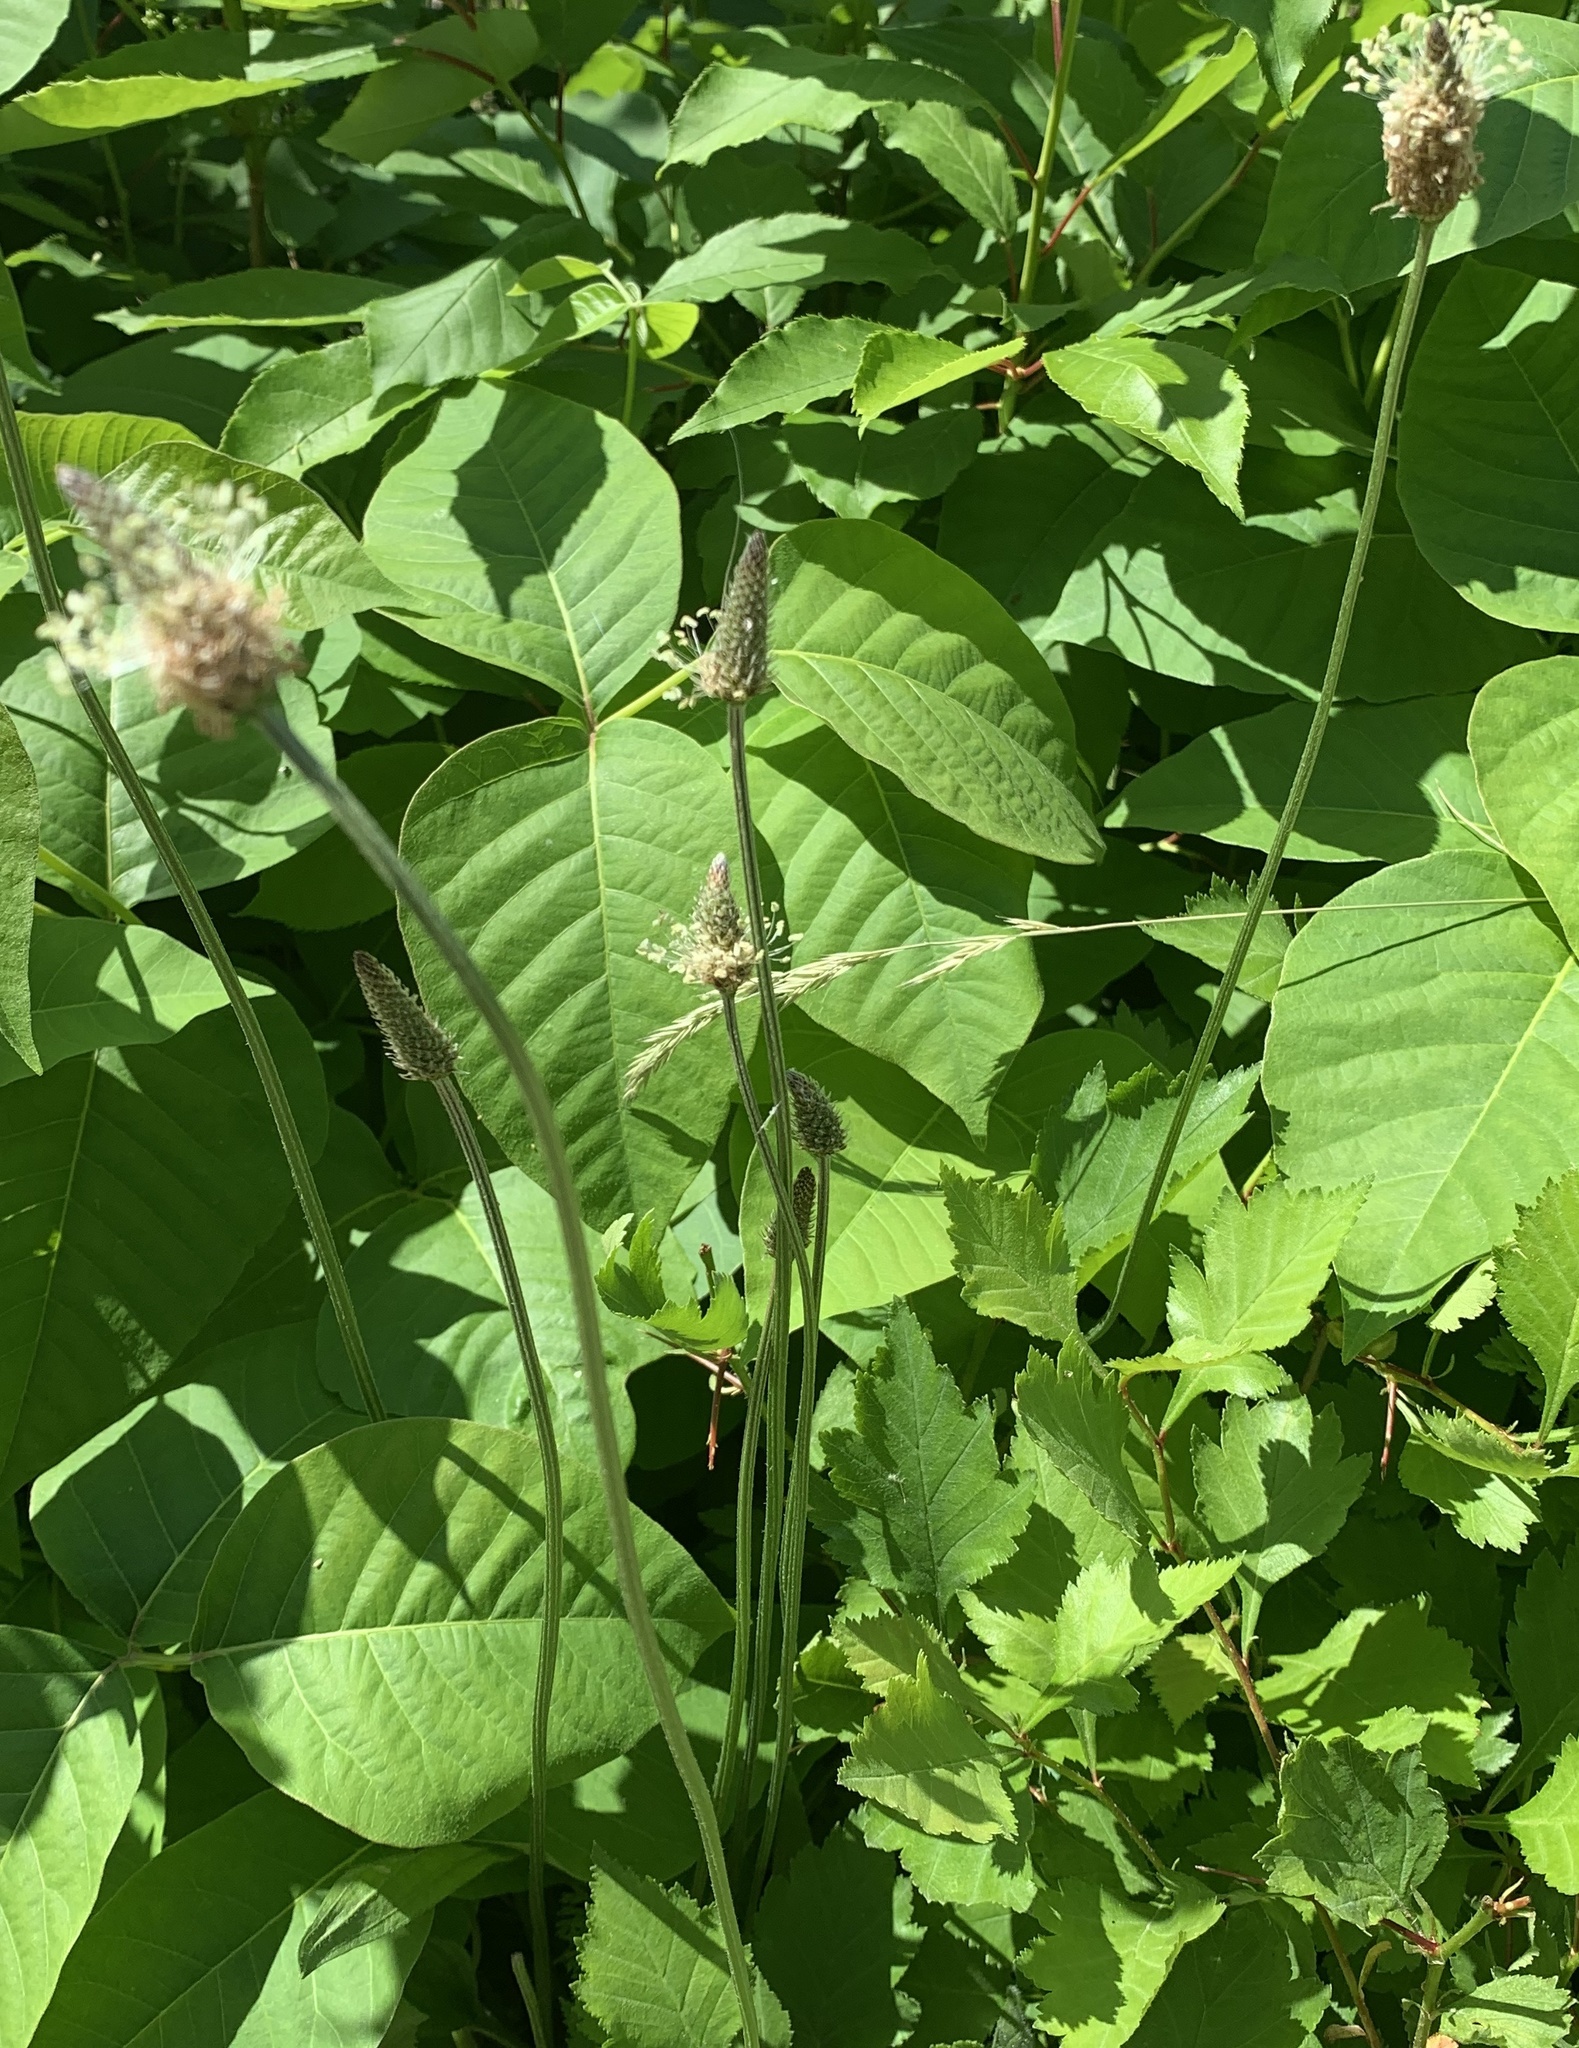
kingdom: Plantae
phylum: Tracheophyta
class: Magnoliopsida
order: Lamiales
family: Plantaginaceae
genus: Plantago
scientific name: Plantago lanceolata
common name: Ribwort plantain
